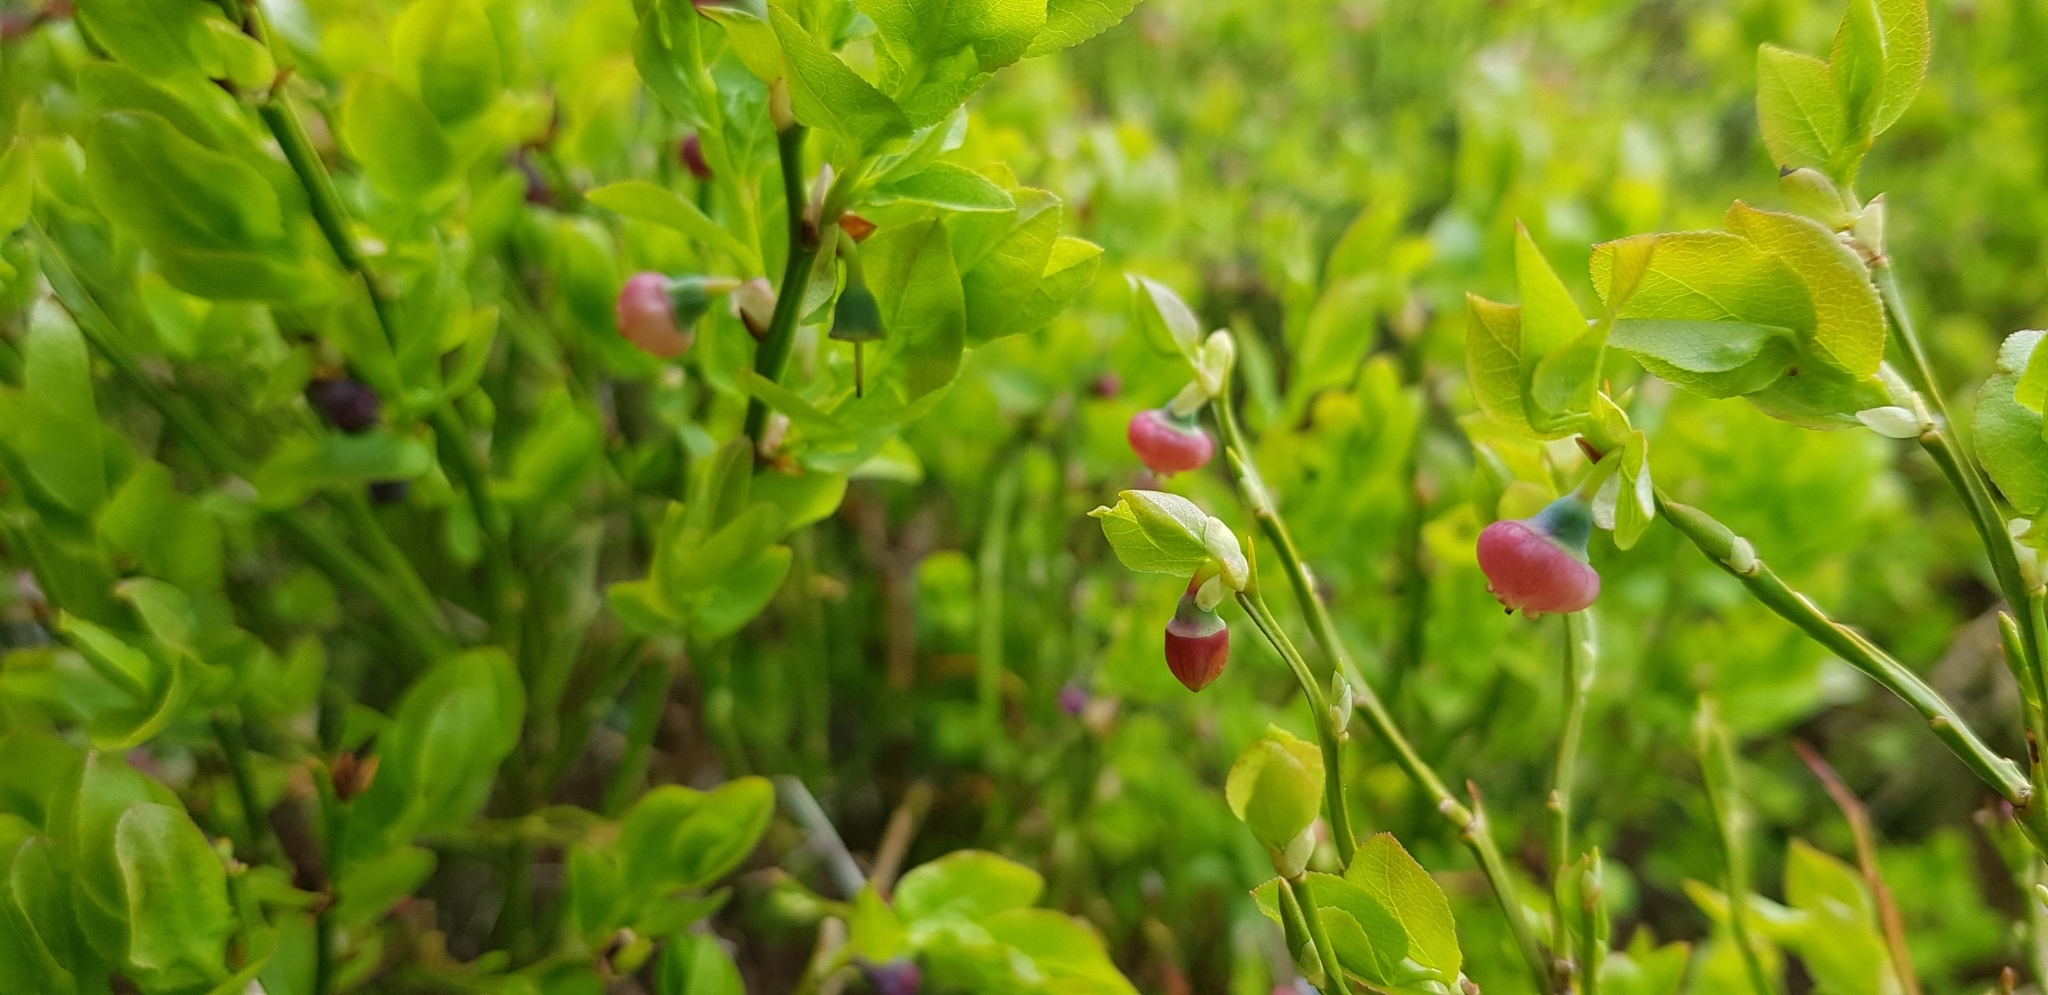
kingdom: Plantae
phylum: Tracheophyta
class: Magnoliopsida
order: Ericales
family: Ericaceae
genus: Vaccinium
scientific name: Vaccinium myrtillus
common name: Bilberry
